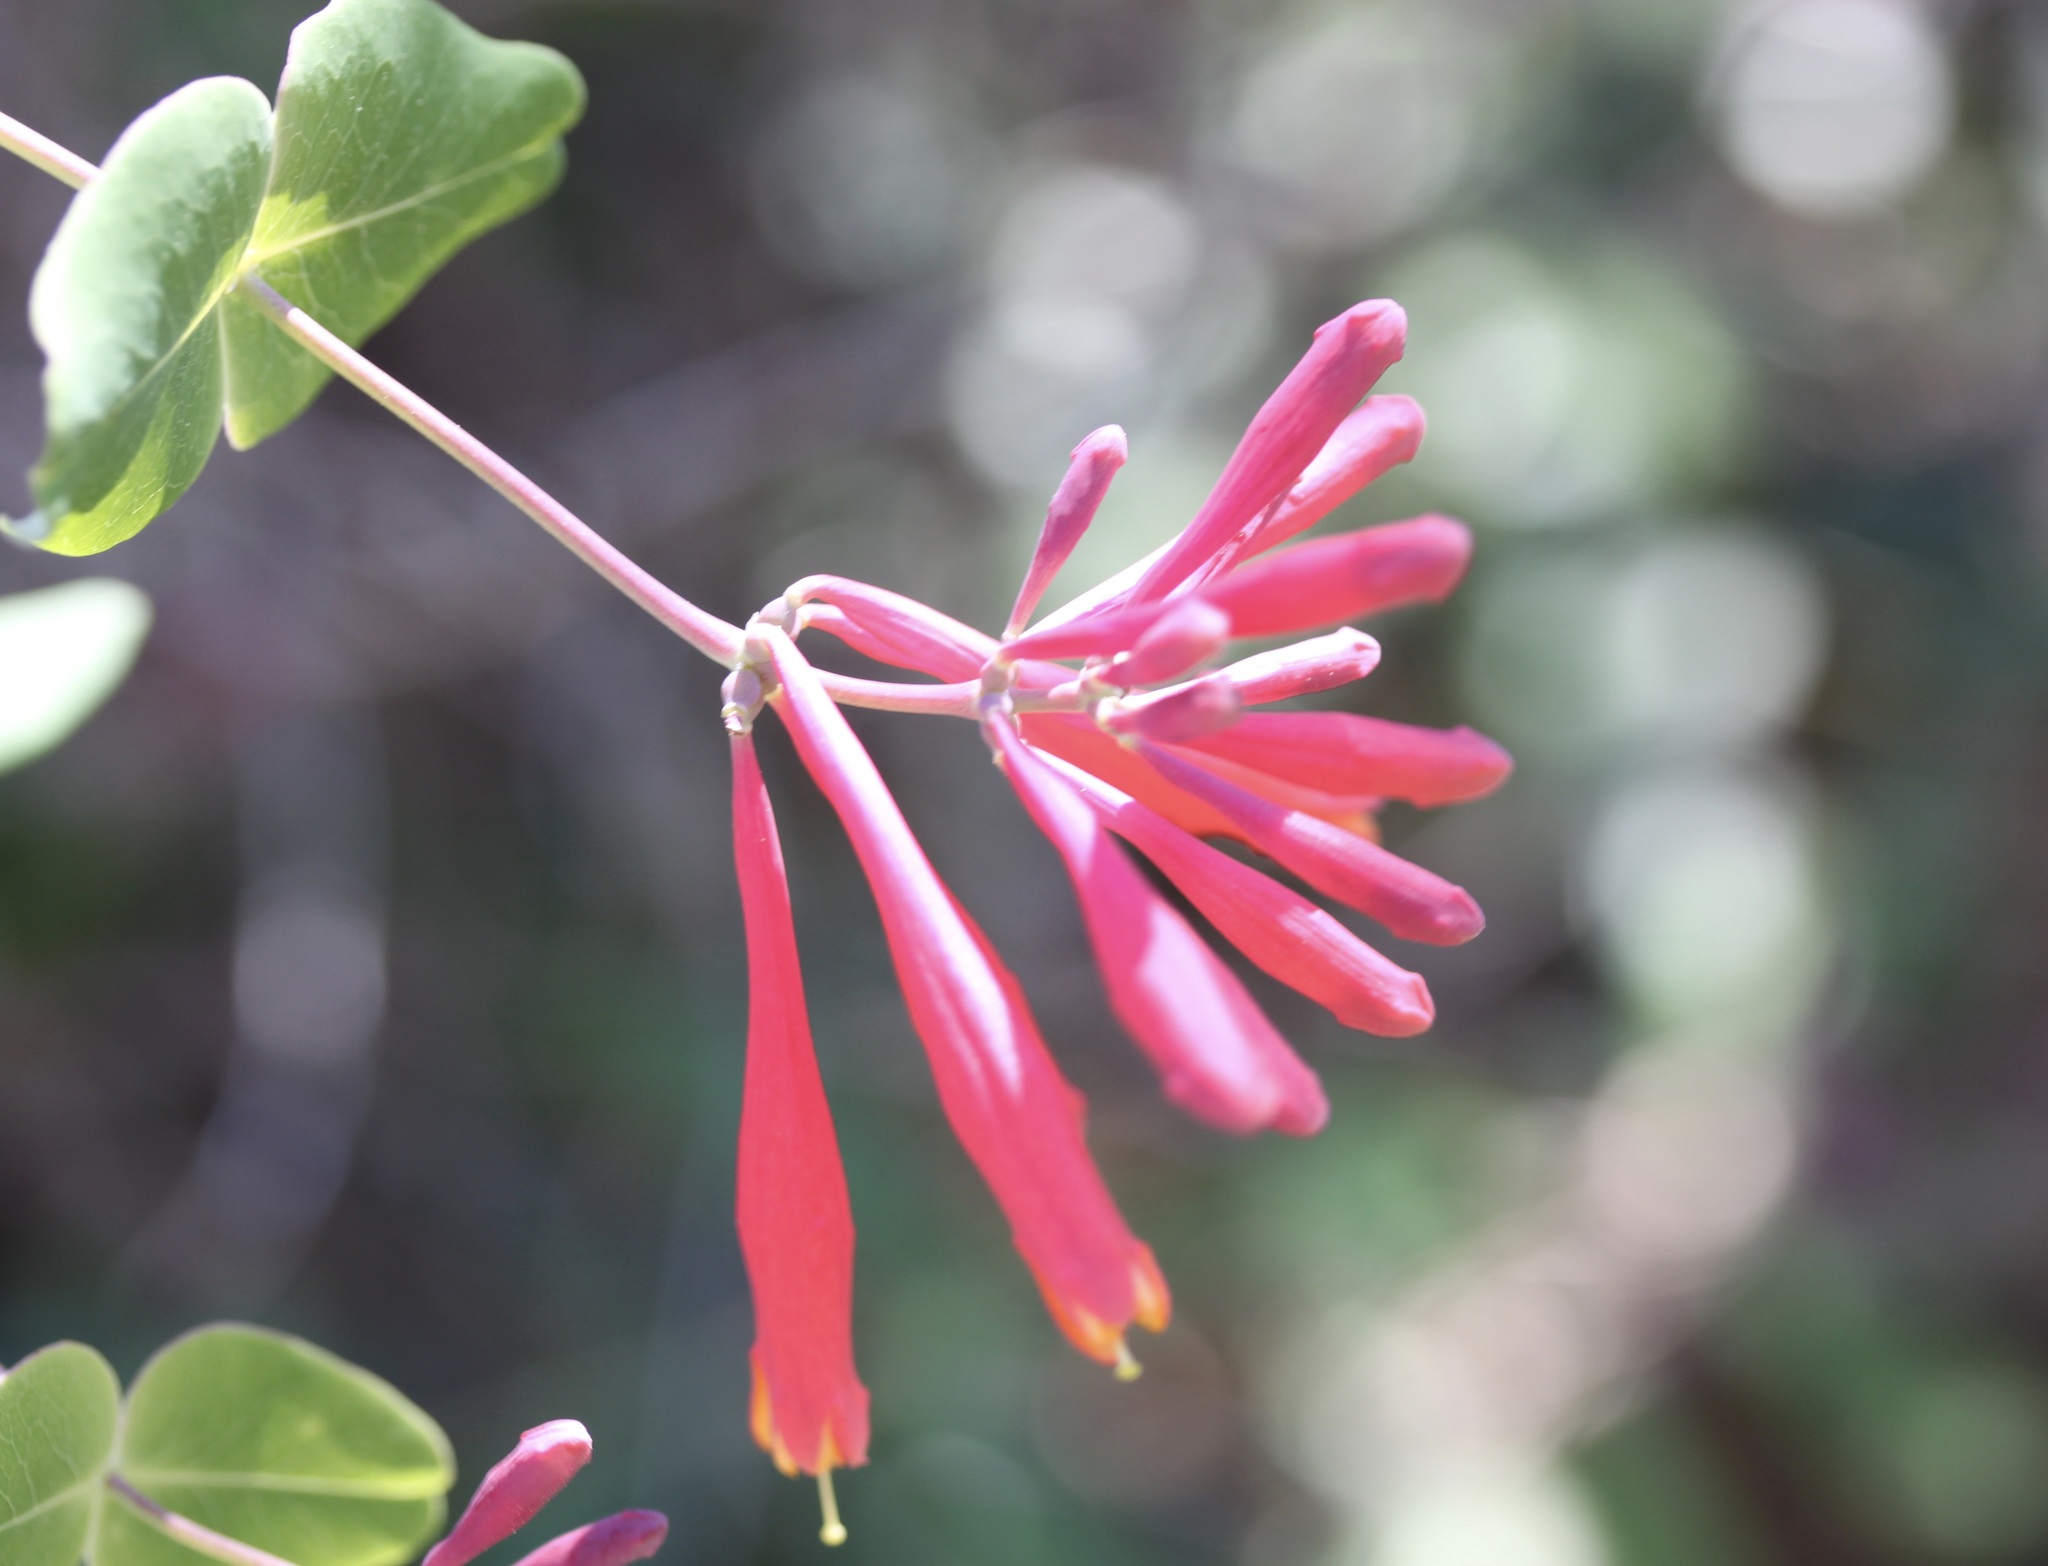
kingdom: Plantae
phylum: Tracheophyta
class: Magnoliopsida
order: Dipsacales
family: Caprifoliaceae
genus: Lonicera
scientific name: Lonicera sempervirens
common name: Coral honeysuckle
